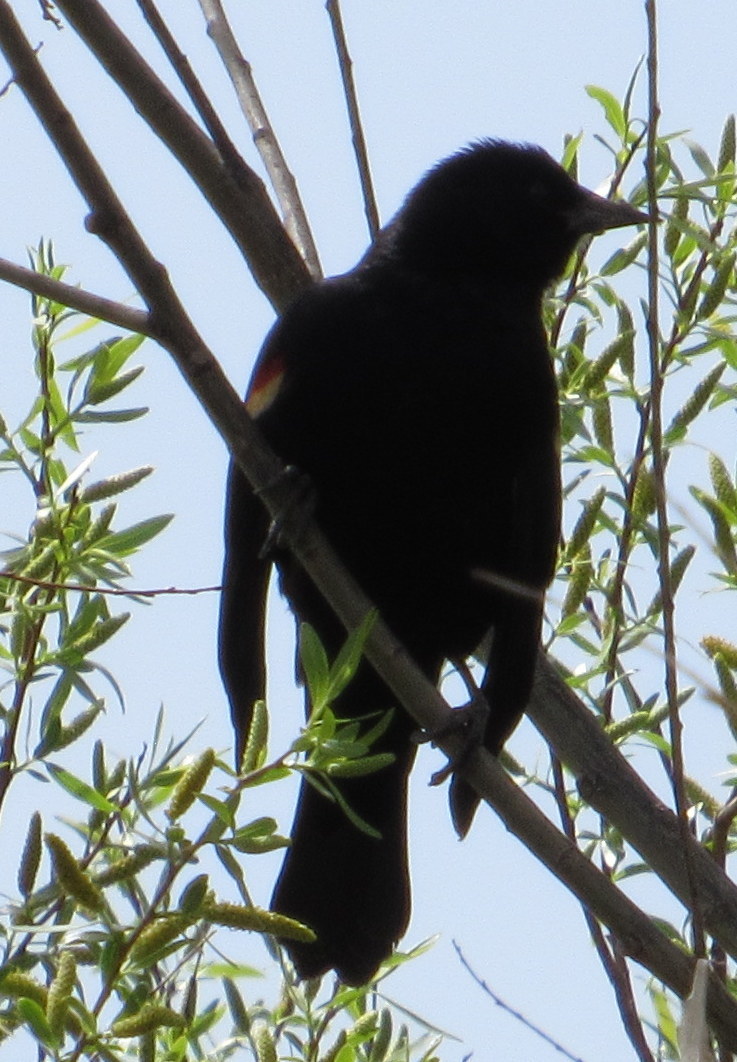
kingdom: Animalia
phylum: Chordata
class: Aves
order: Passeriformes
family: Icteridae
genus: Agelaius
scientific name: Agelaius phoeniceus
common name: Red-winged blackbird
